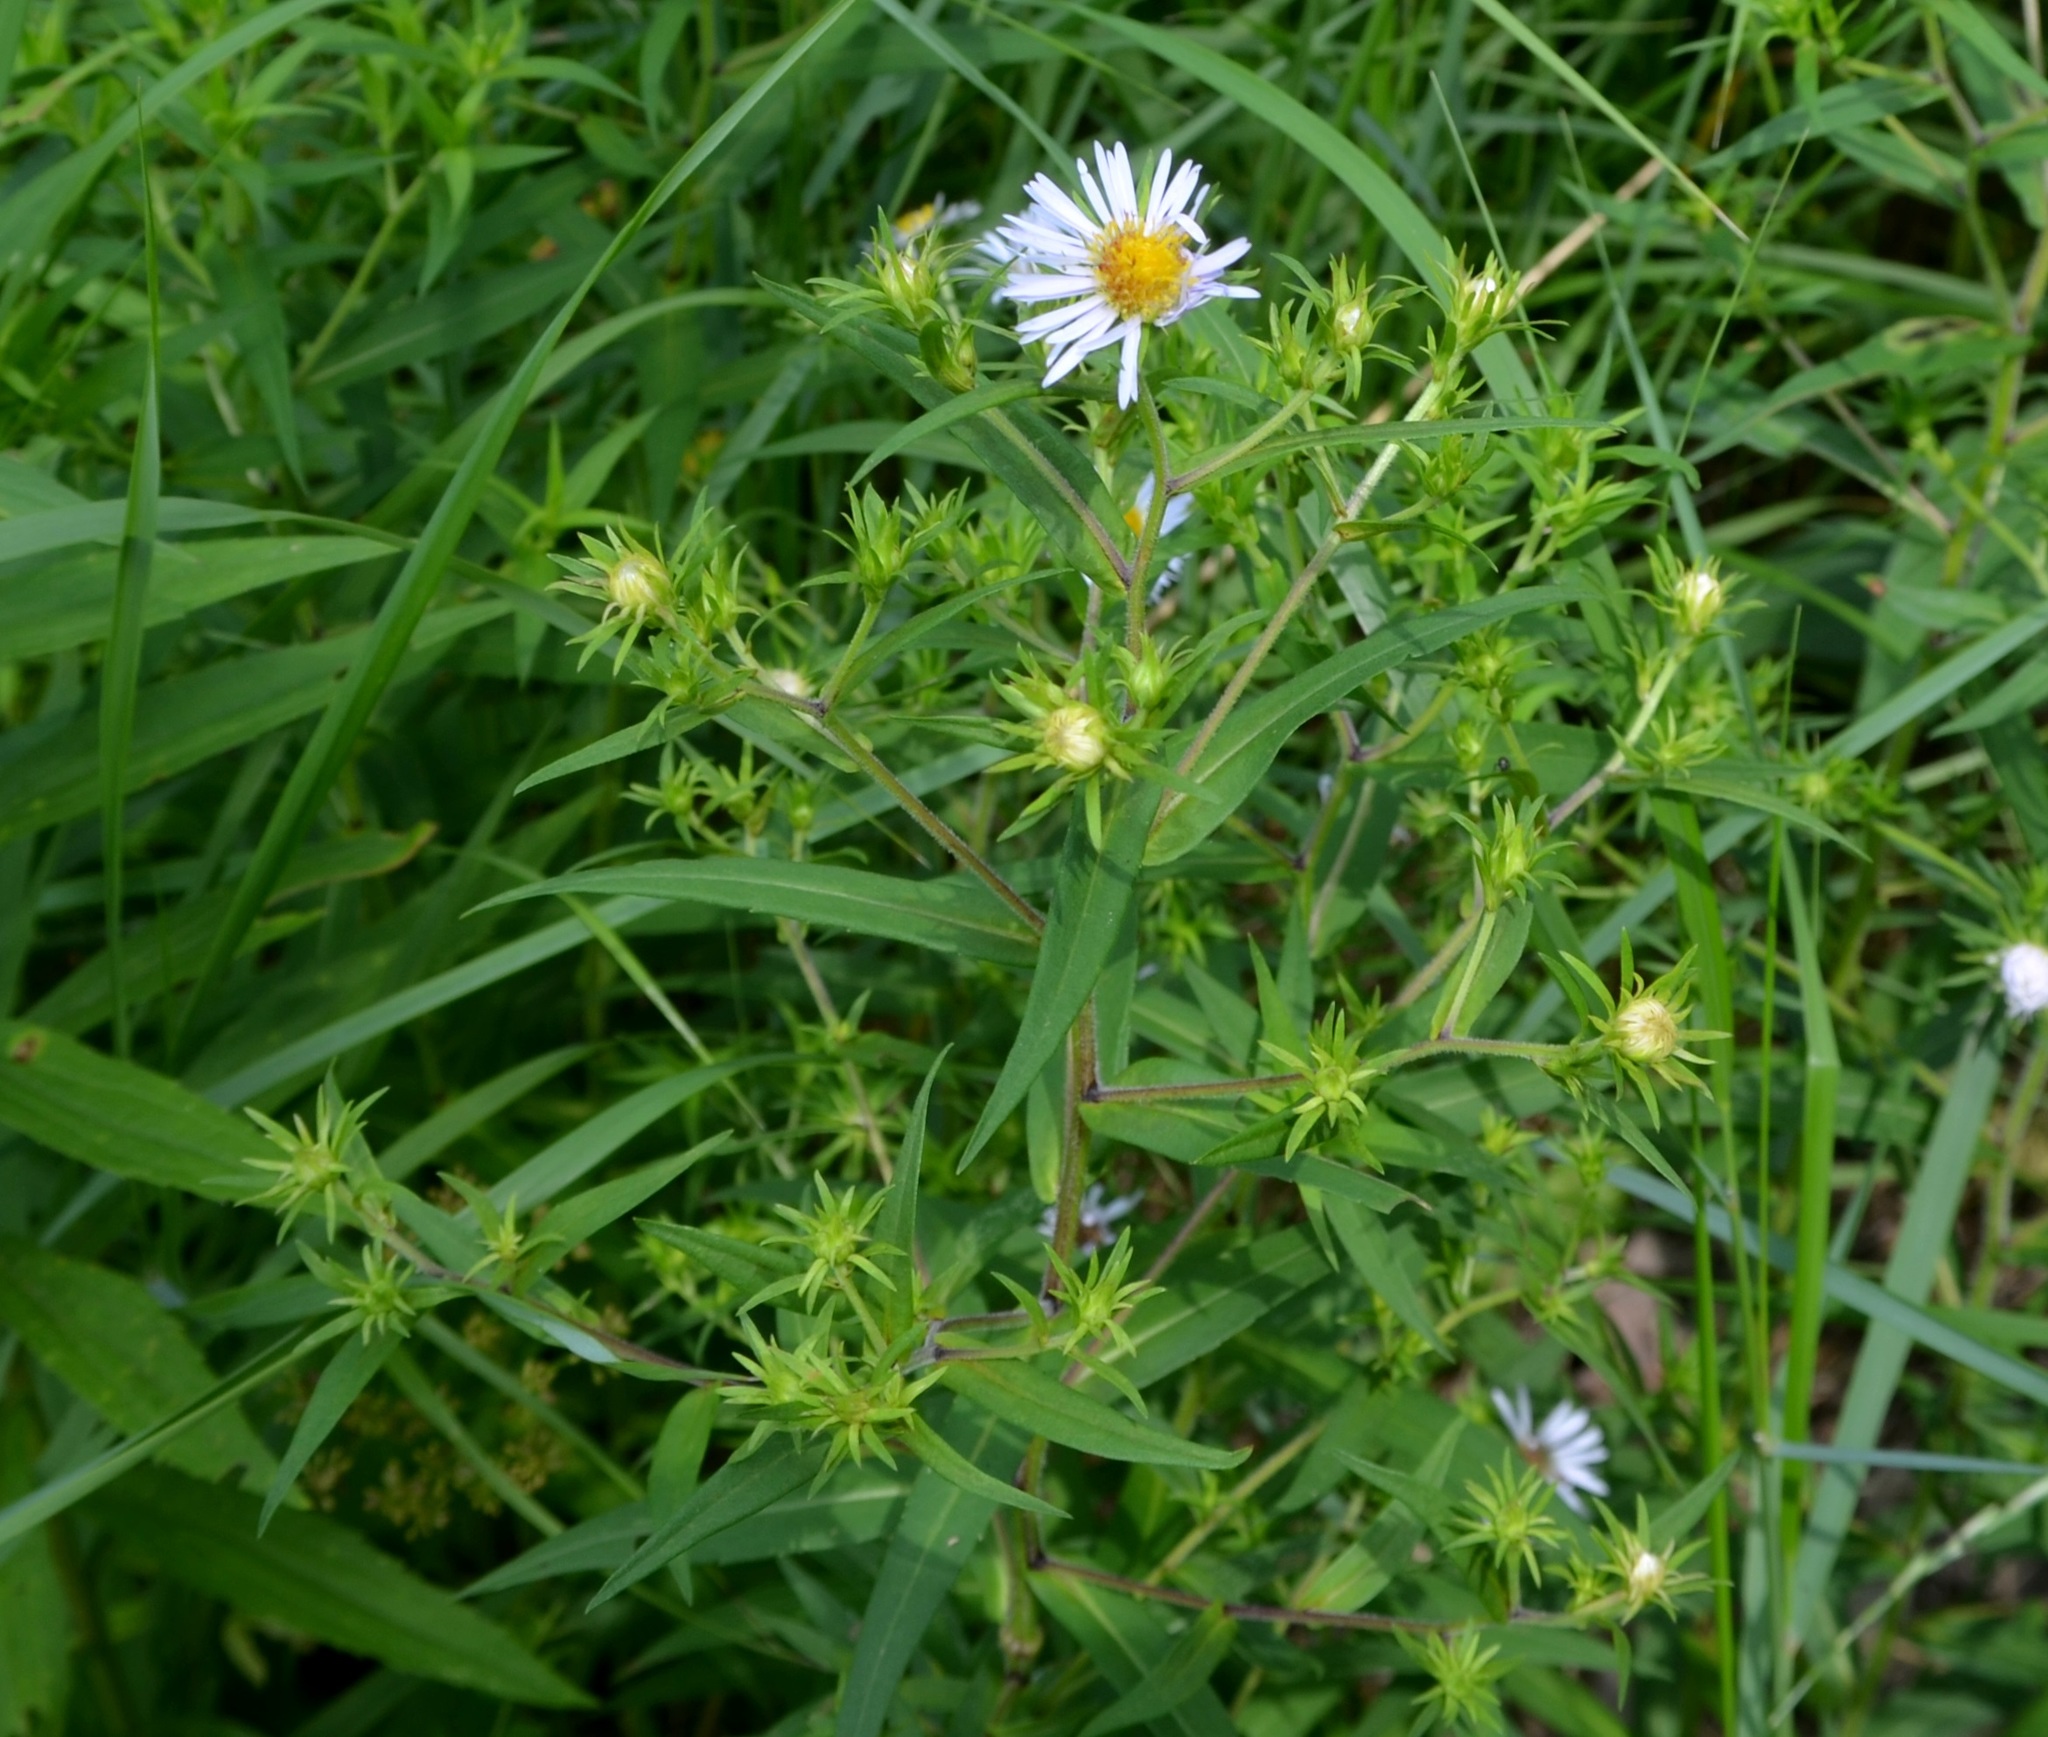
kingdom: Plantae
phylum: Tracheophyta
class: Magnoliopsida
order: Asterales
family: Asteraceae
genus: Symphyotrichum
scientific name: Symphyotrichum puniceum
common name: Bog aster
